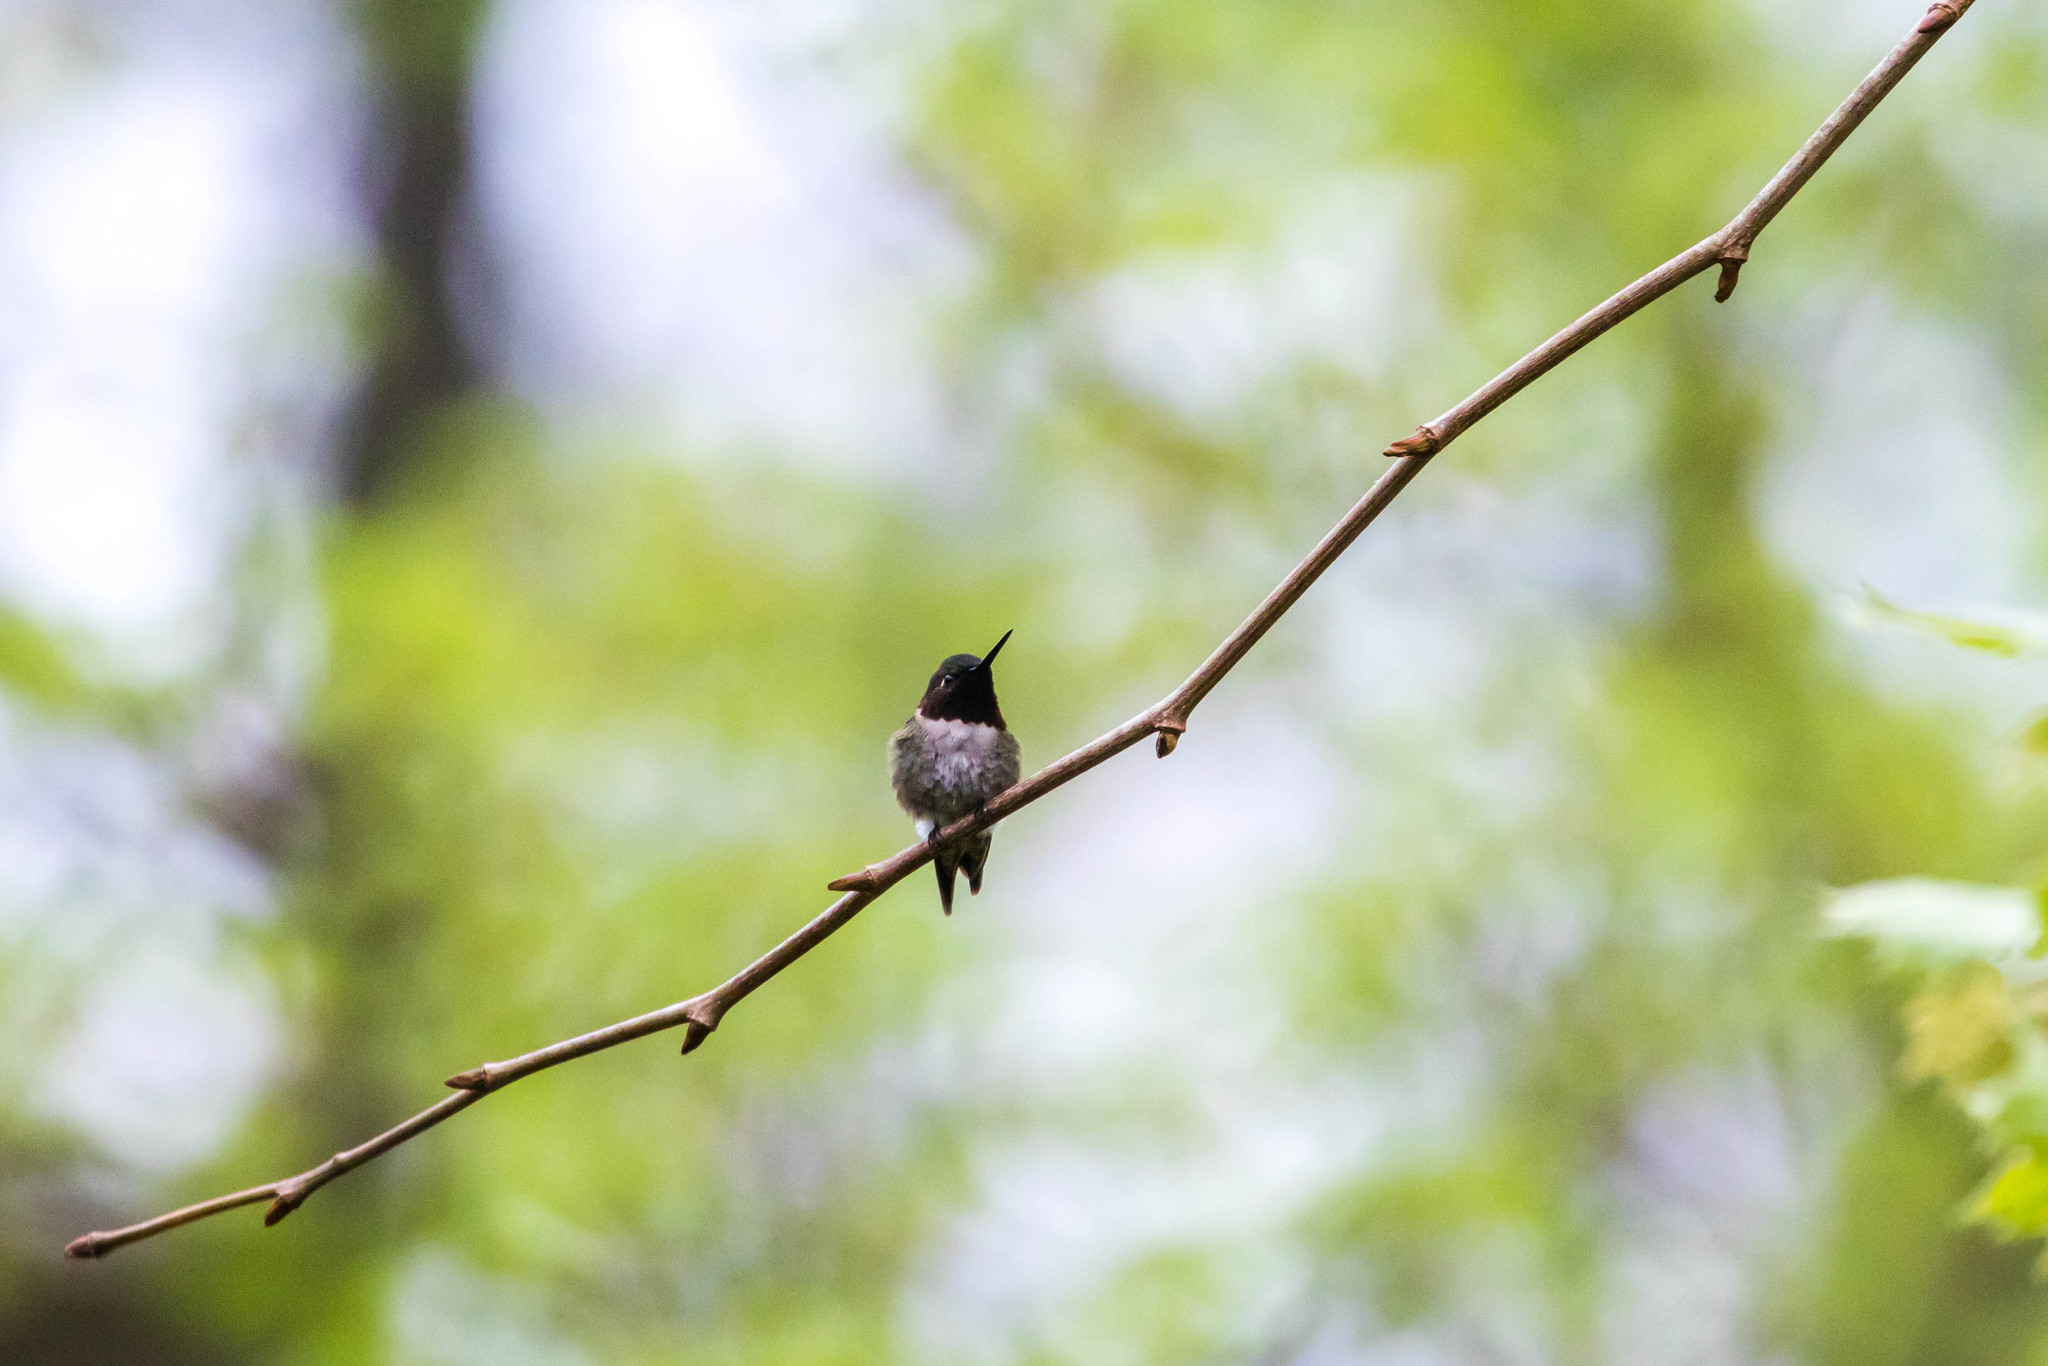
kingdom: Animalia
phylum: Chordata
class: Aves
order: Apodiformes
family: Trochilidae
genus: Archilochus
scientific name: Archilochus colubris
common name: Ruby-throated hummingbird
